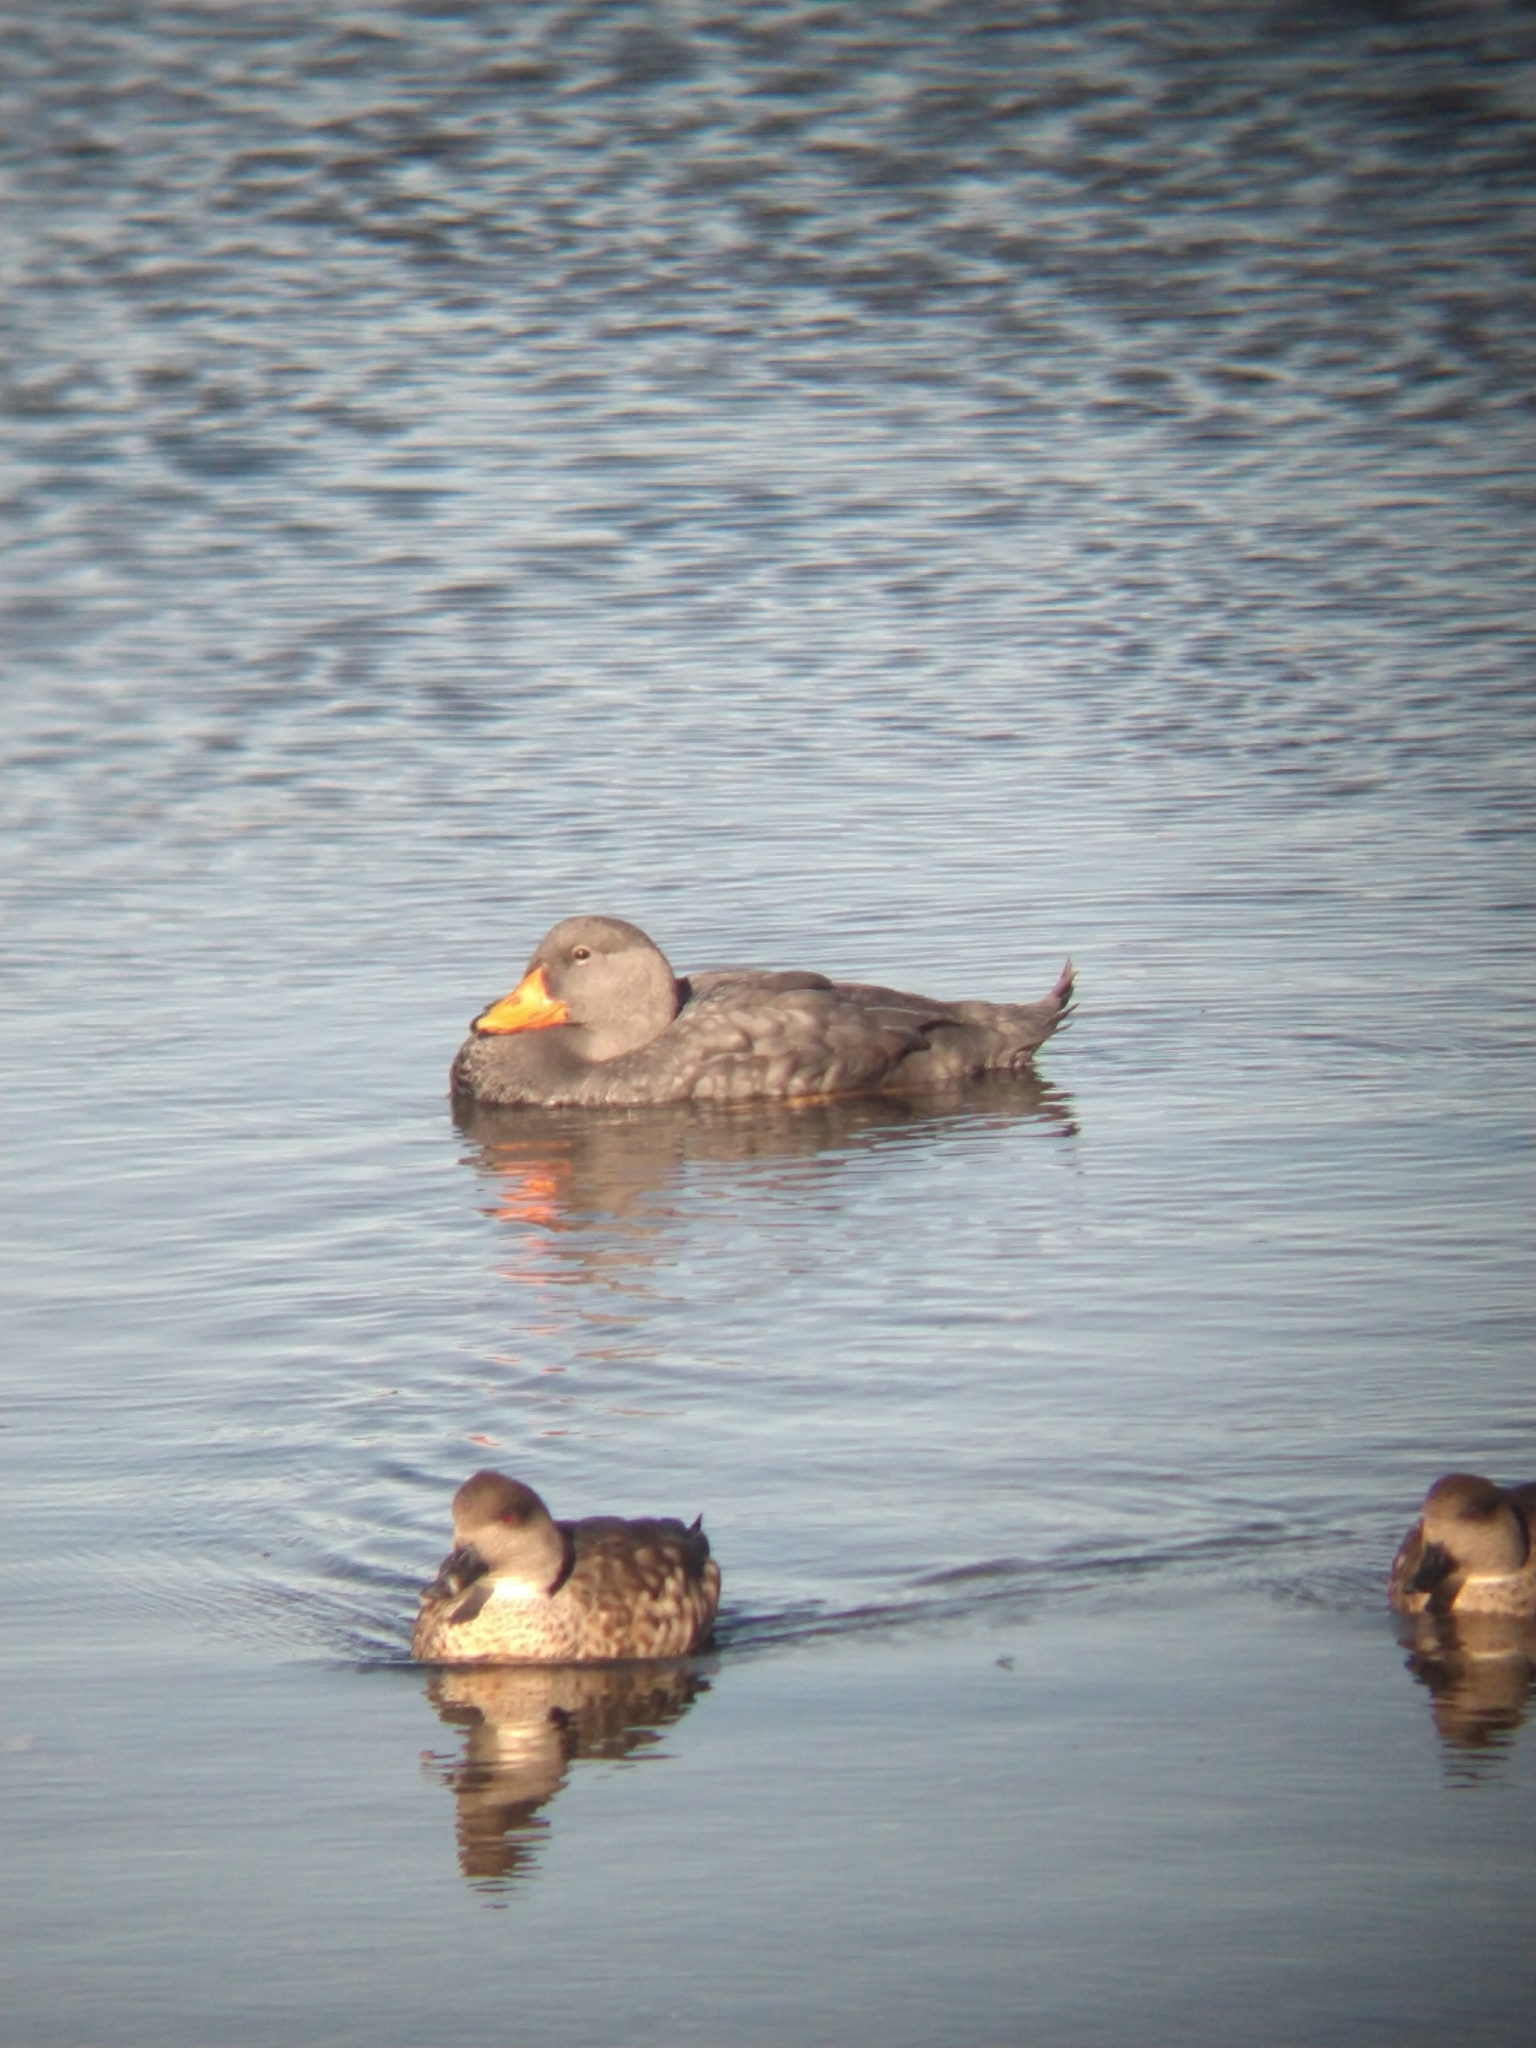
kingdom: Animalia
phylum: Chordata
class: Aves
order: Anseriformes
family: Anatidae
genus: Tachyeres
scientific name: Tachyeres pteneres
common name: Fuegian steamer duck
